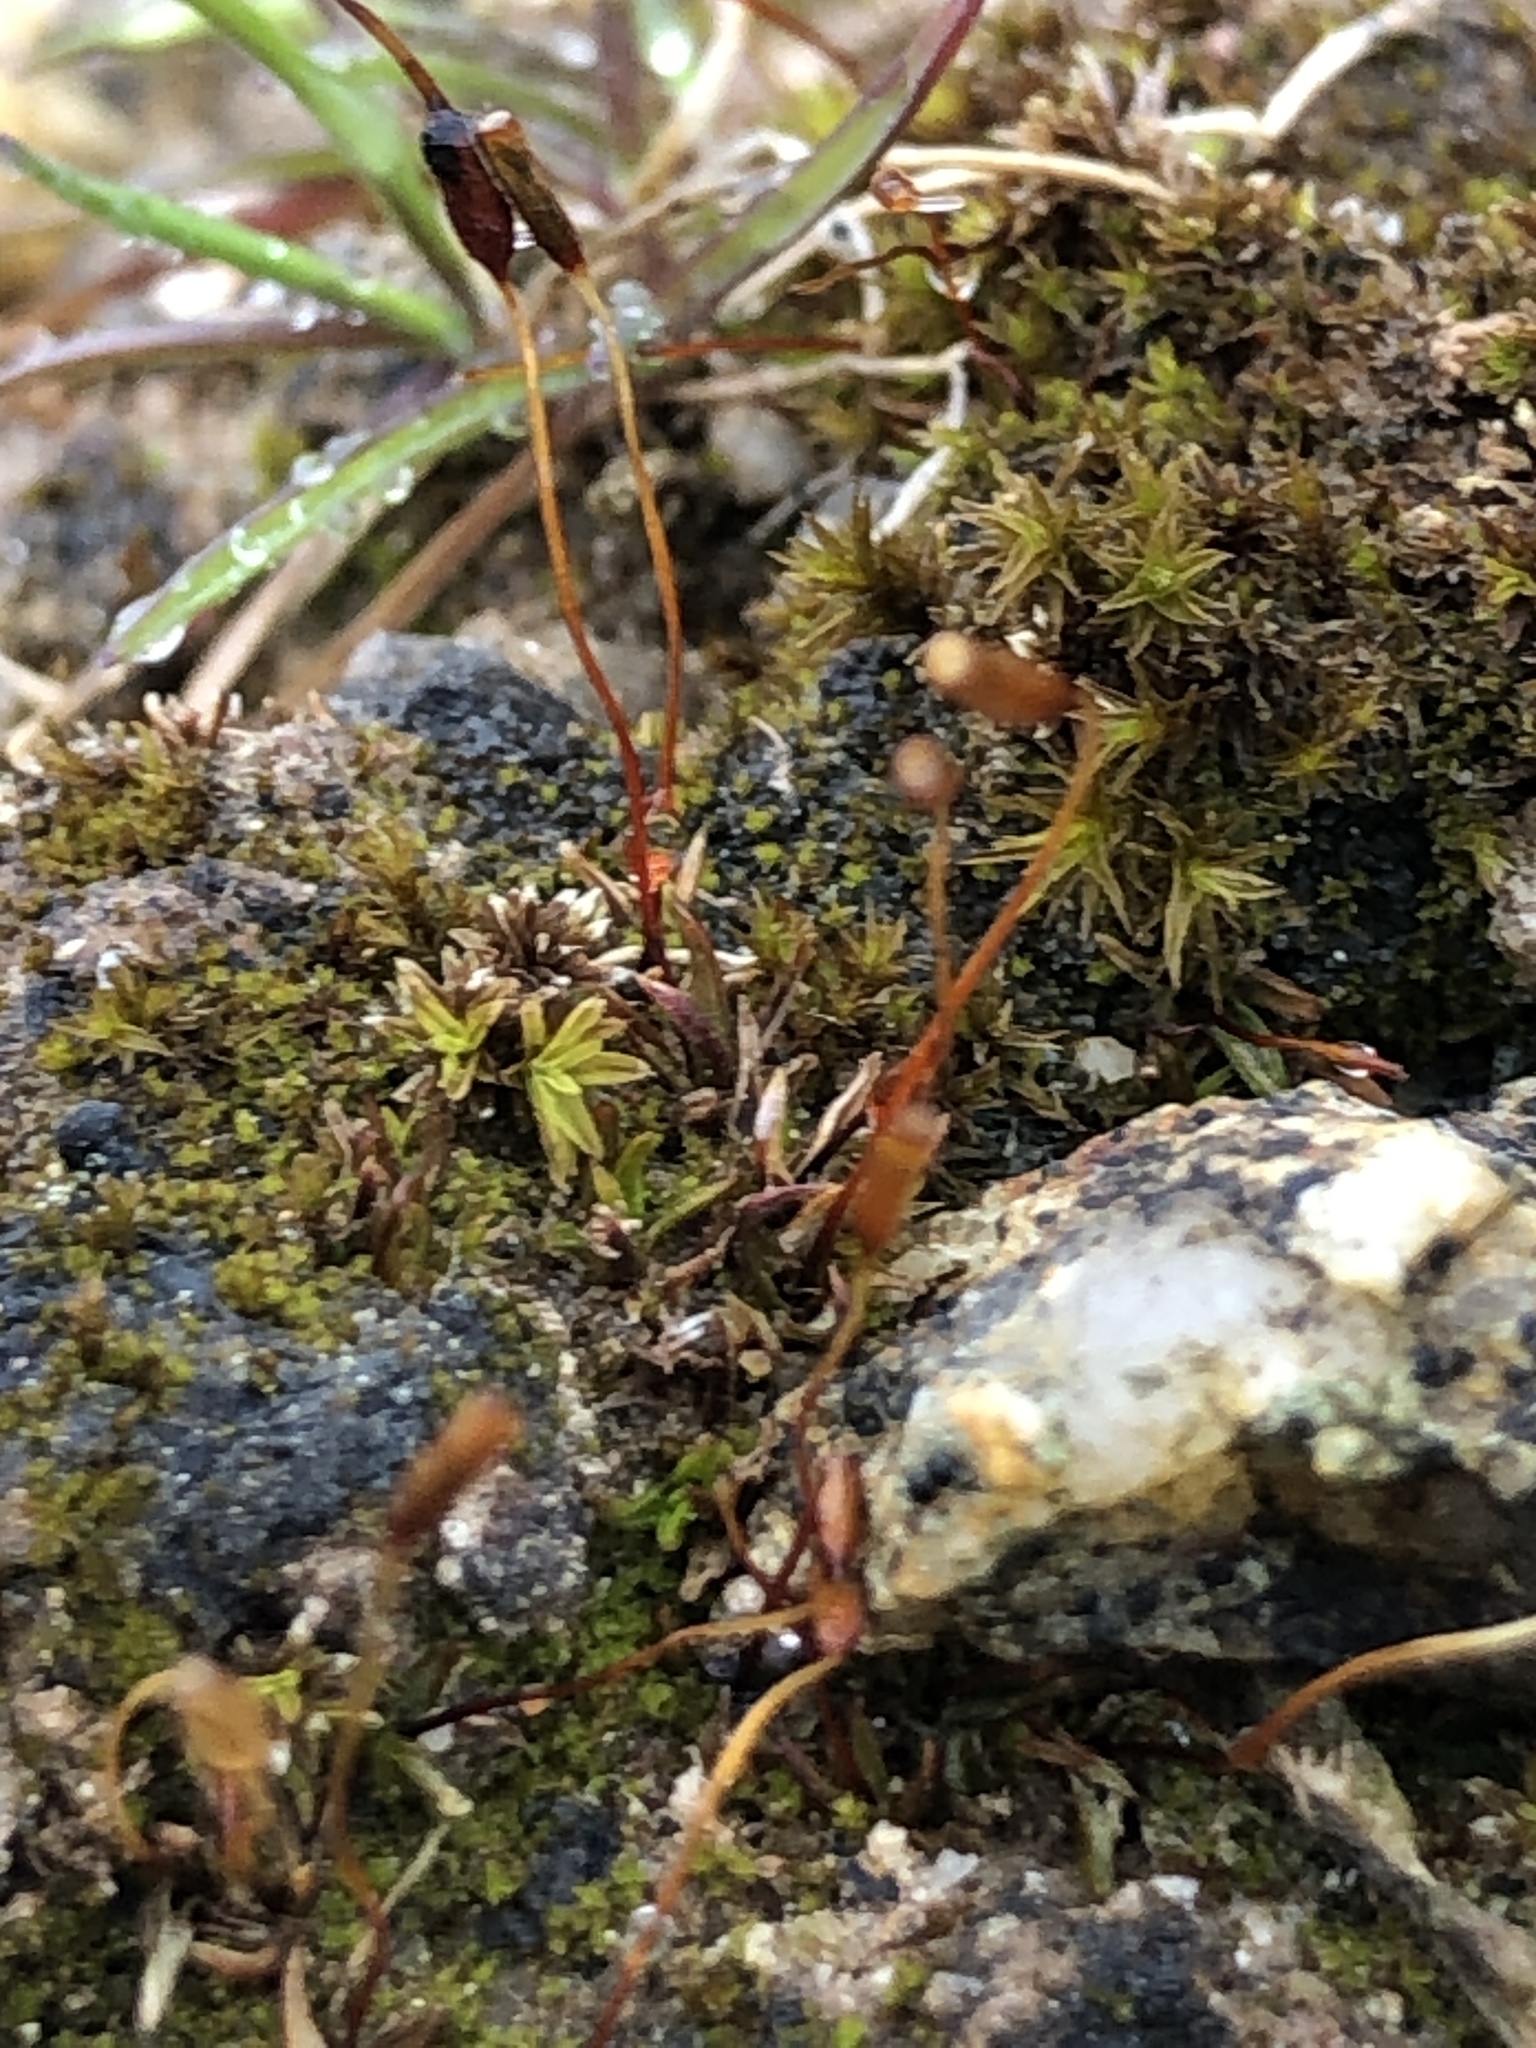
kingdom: Plantae
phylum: Bryophyta
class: Bryopsida
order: Pottiales
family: Pottiaceae
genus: Aloina
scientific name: Aloina aloides
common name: Common aloe-moss
